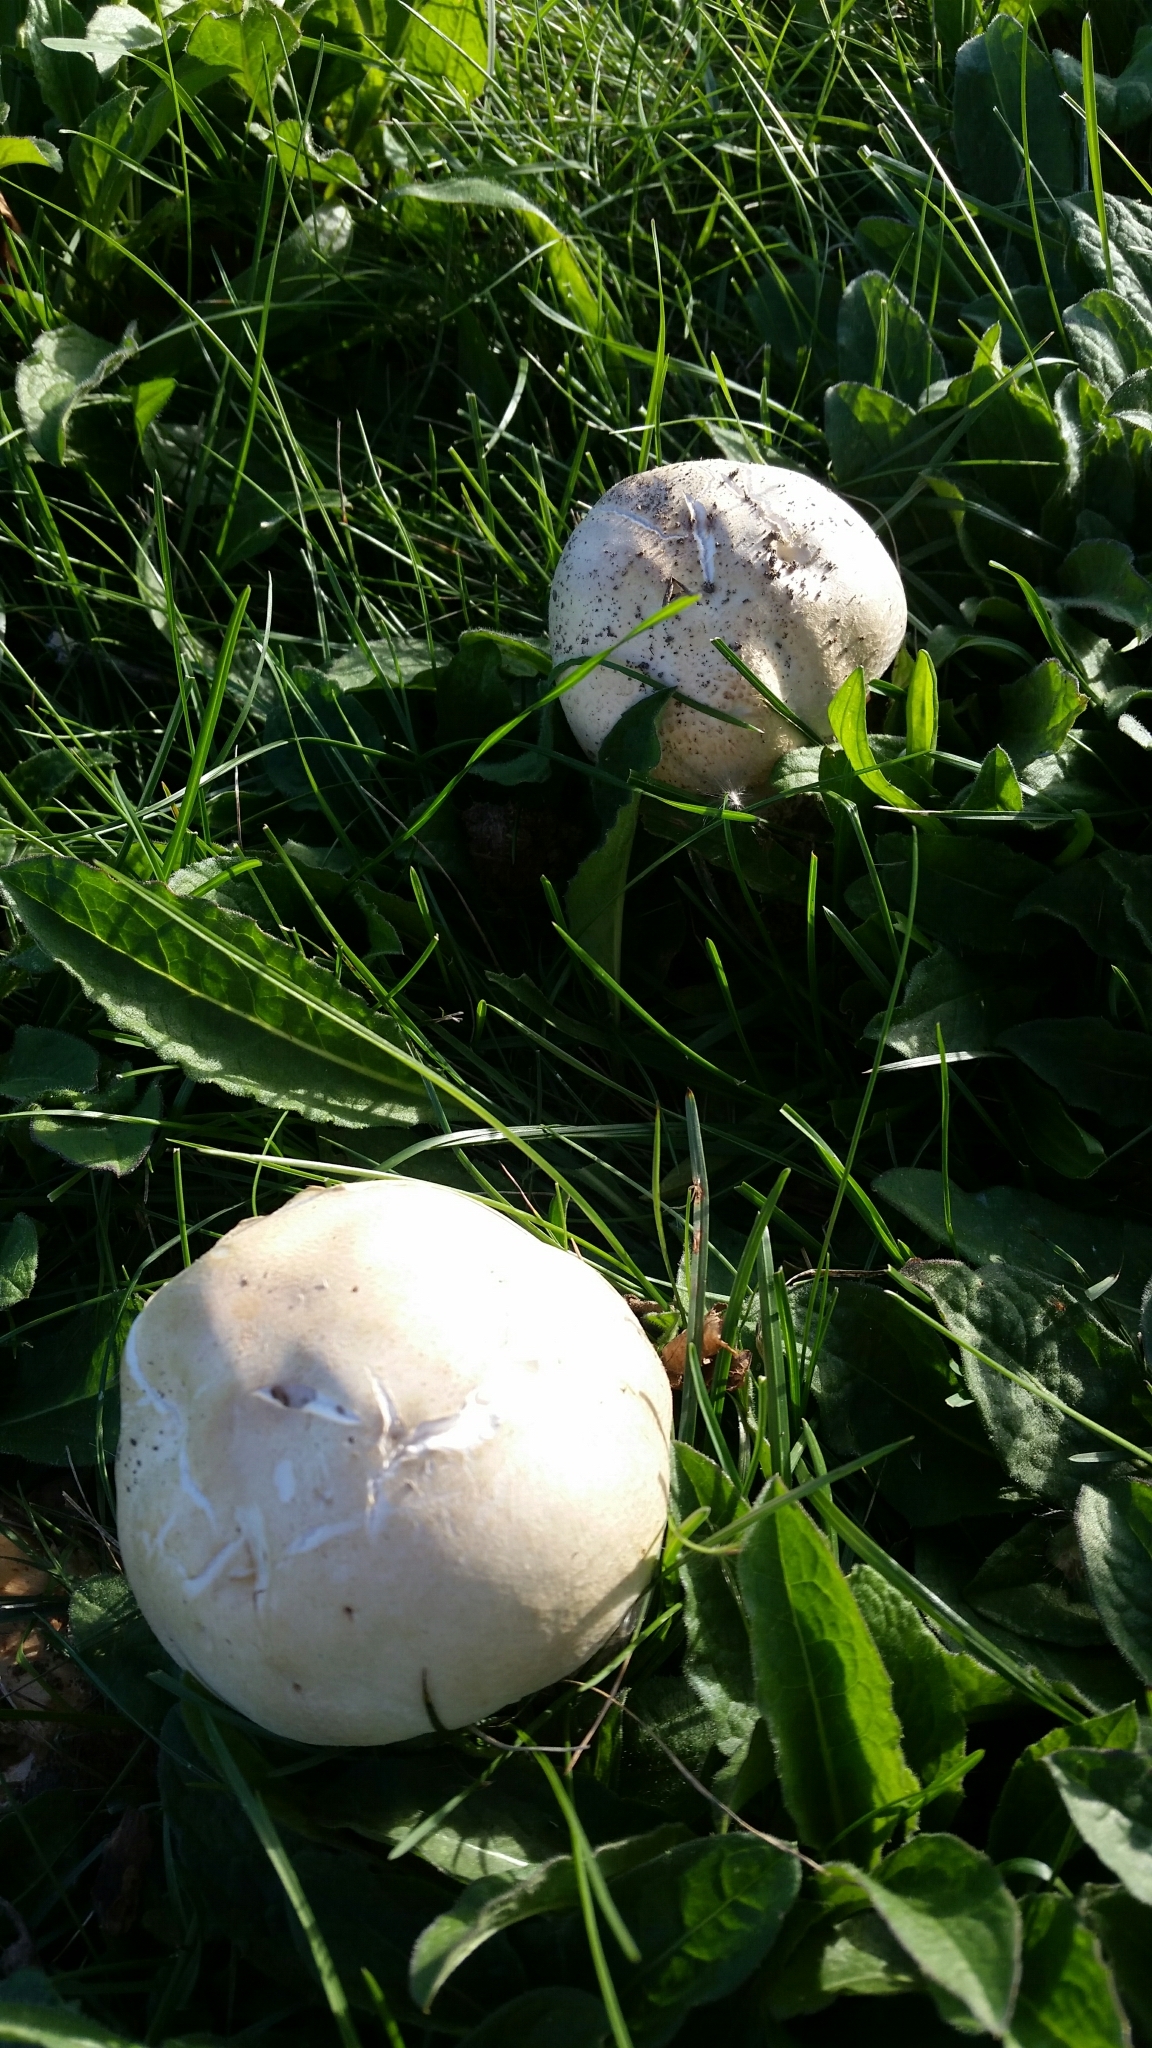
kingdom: Fungi
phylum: Basidiomycota
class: Agaricomycetes
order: Agaricales
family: Lycoperdaceae
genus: Calvatia
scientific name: Calvatia gigantea
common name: Giant puffball
